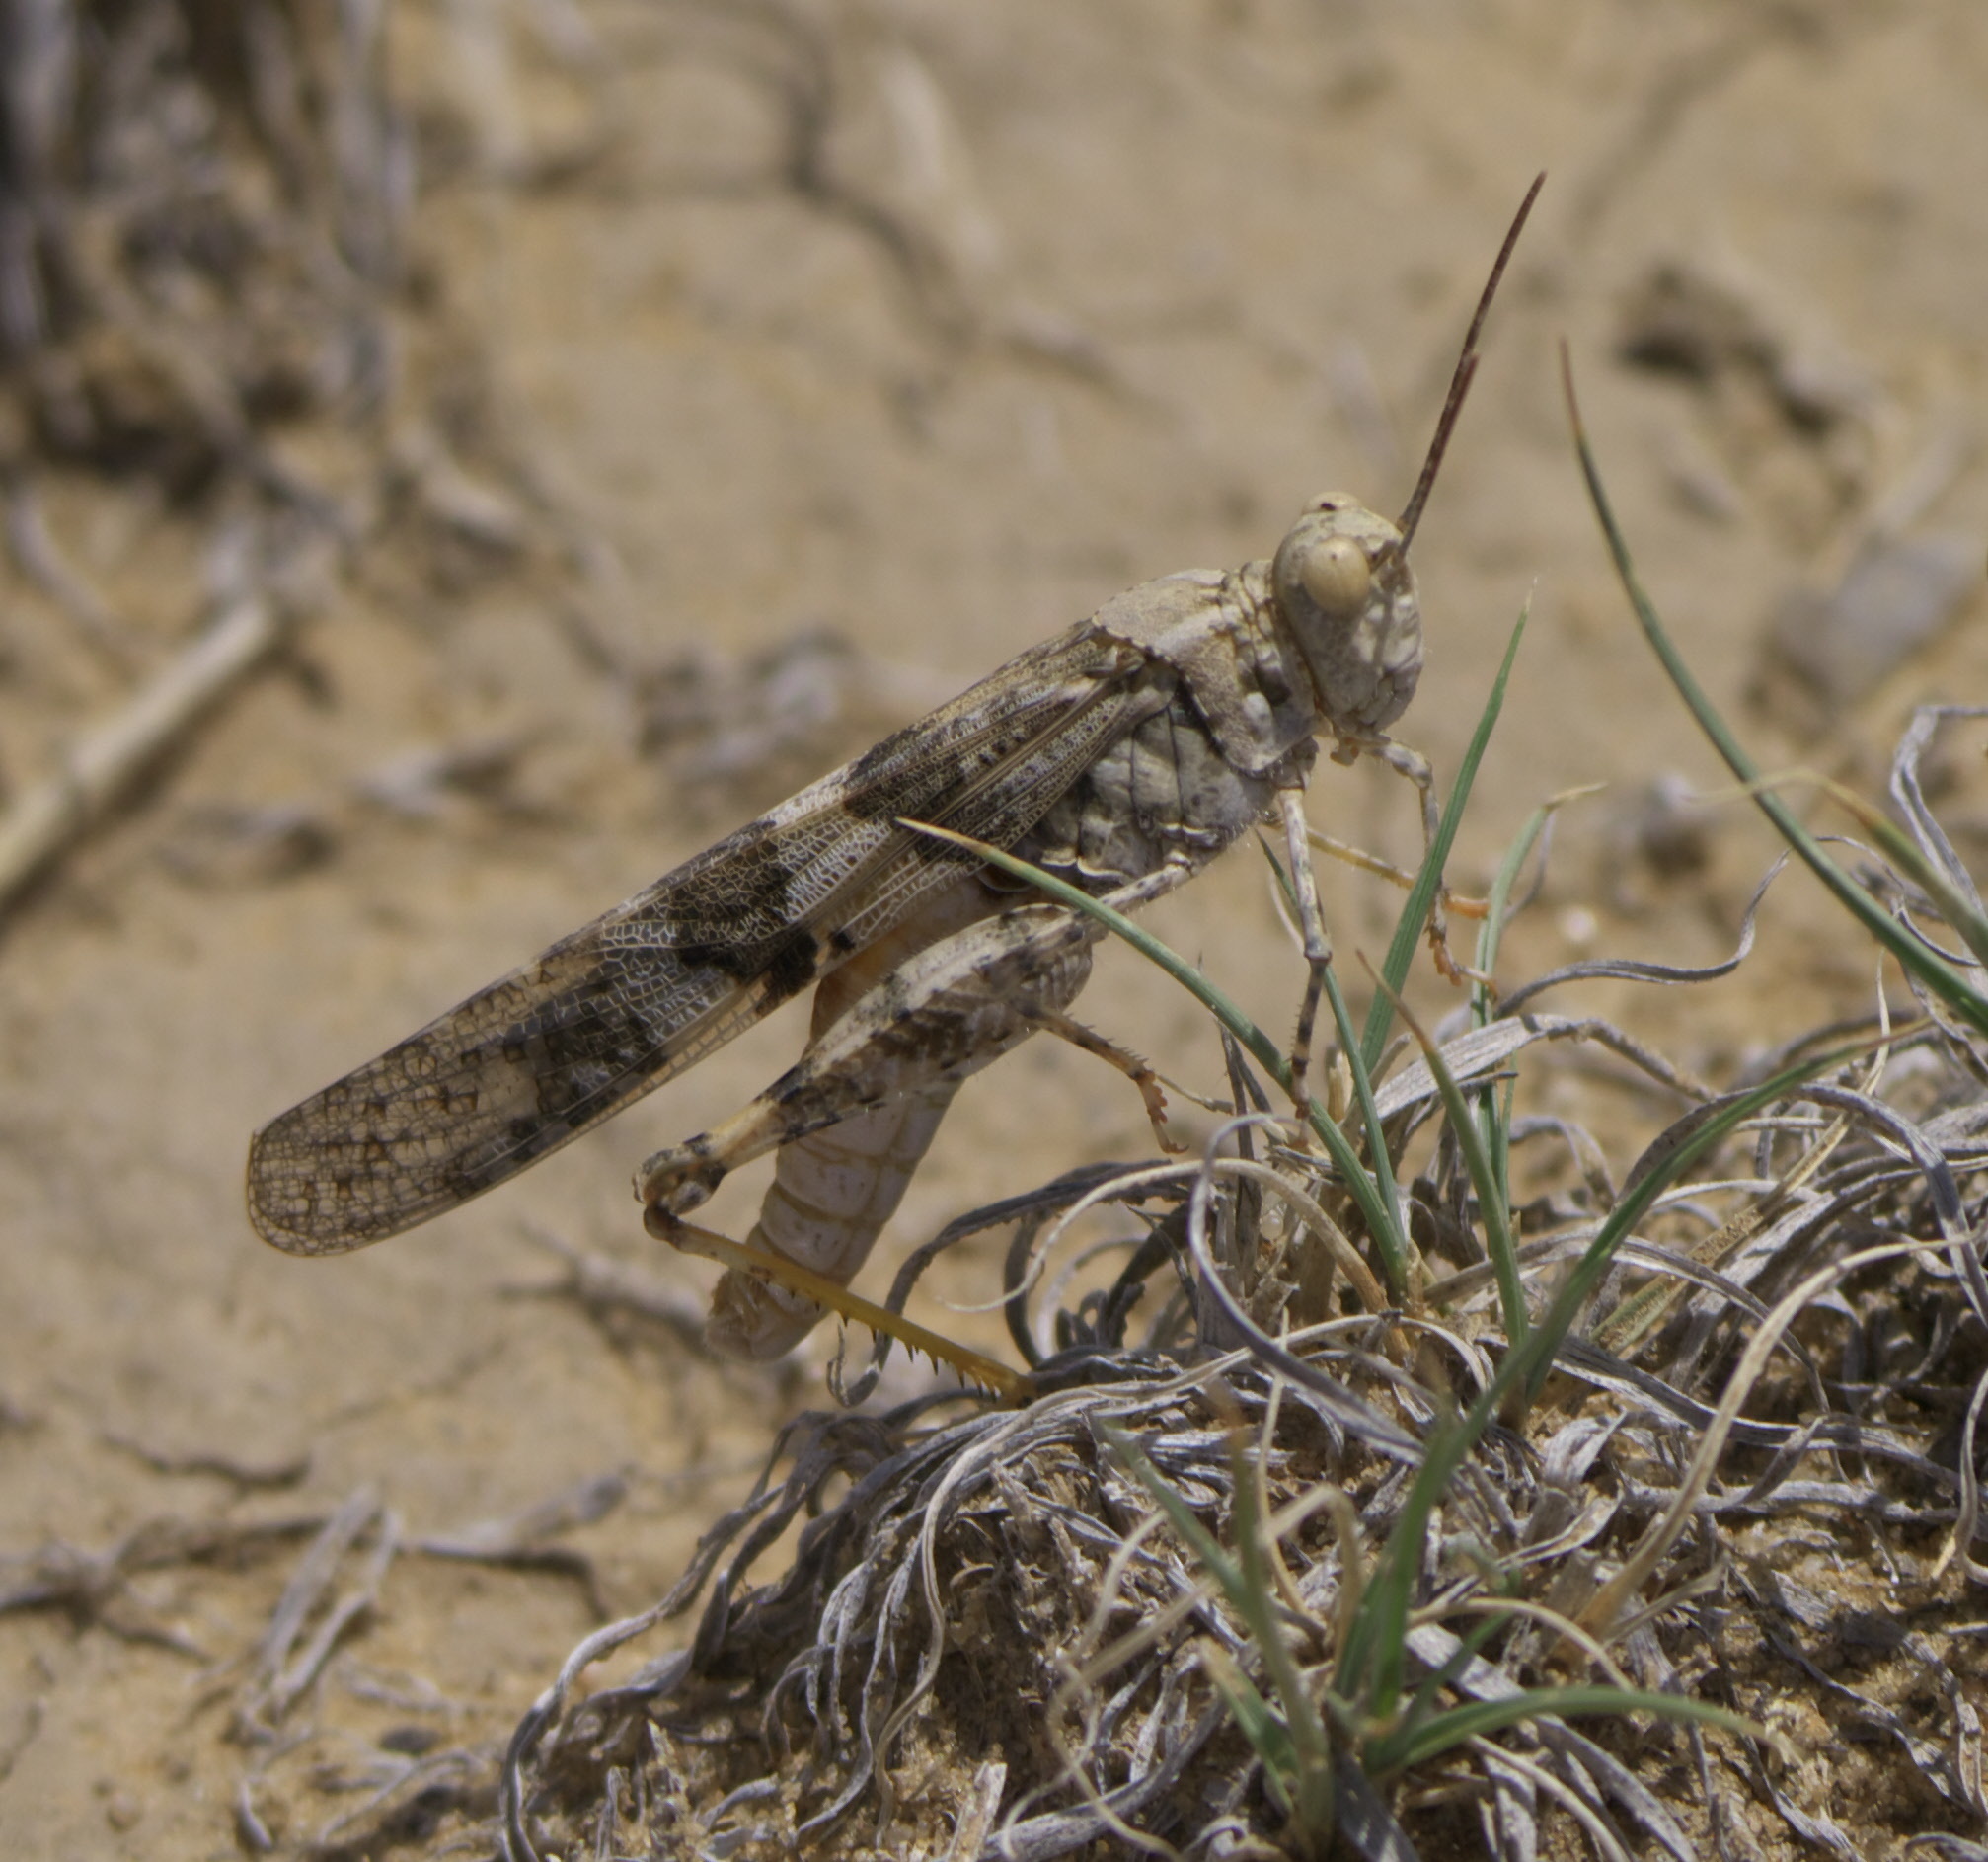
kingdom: Animalia
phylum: Arthropoda
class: Insecta
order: Orthoptera
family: Acrididae
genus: Trimerotropis
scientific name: Trimerotropis pallidipennis
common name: Pallid-winged grasshopper
